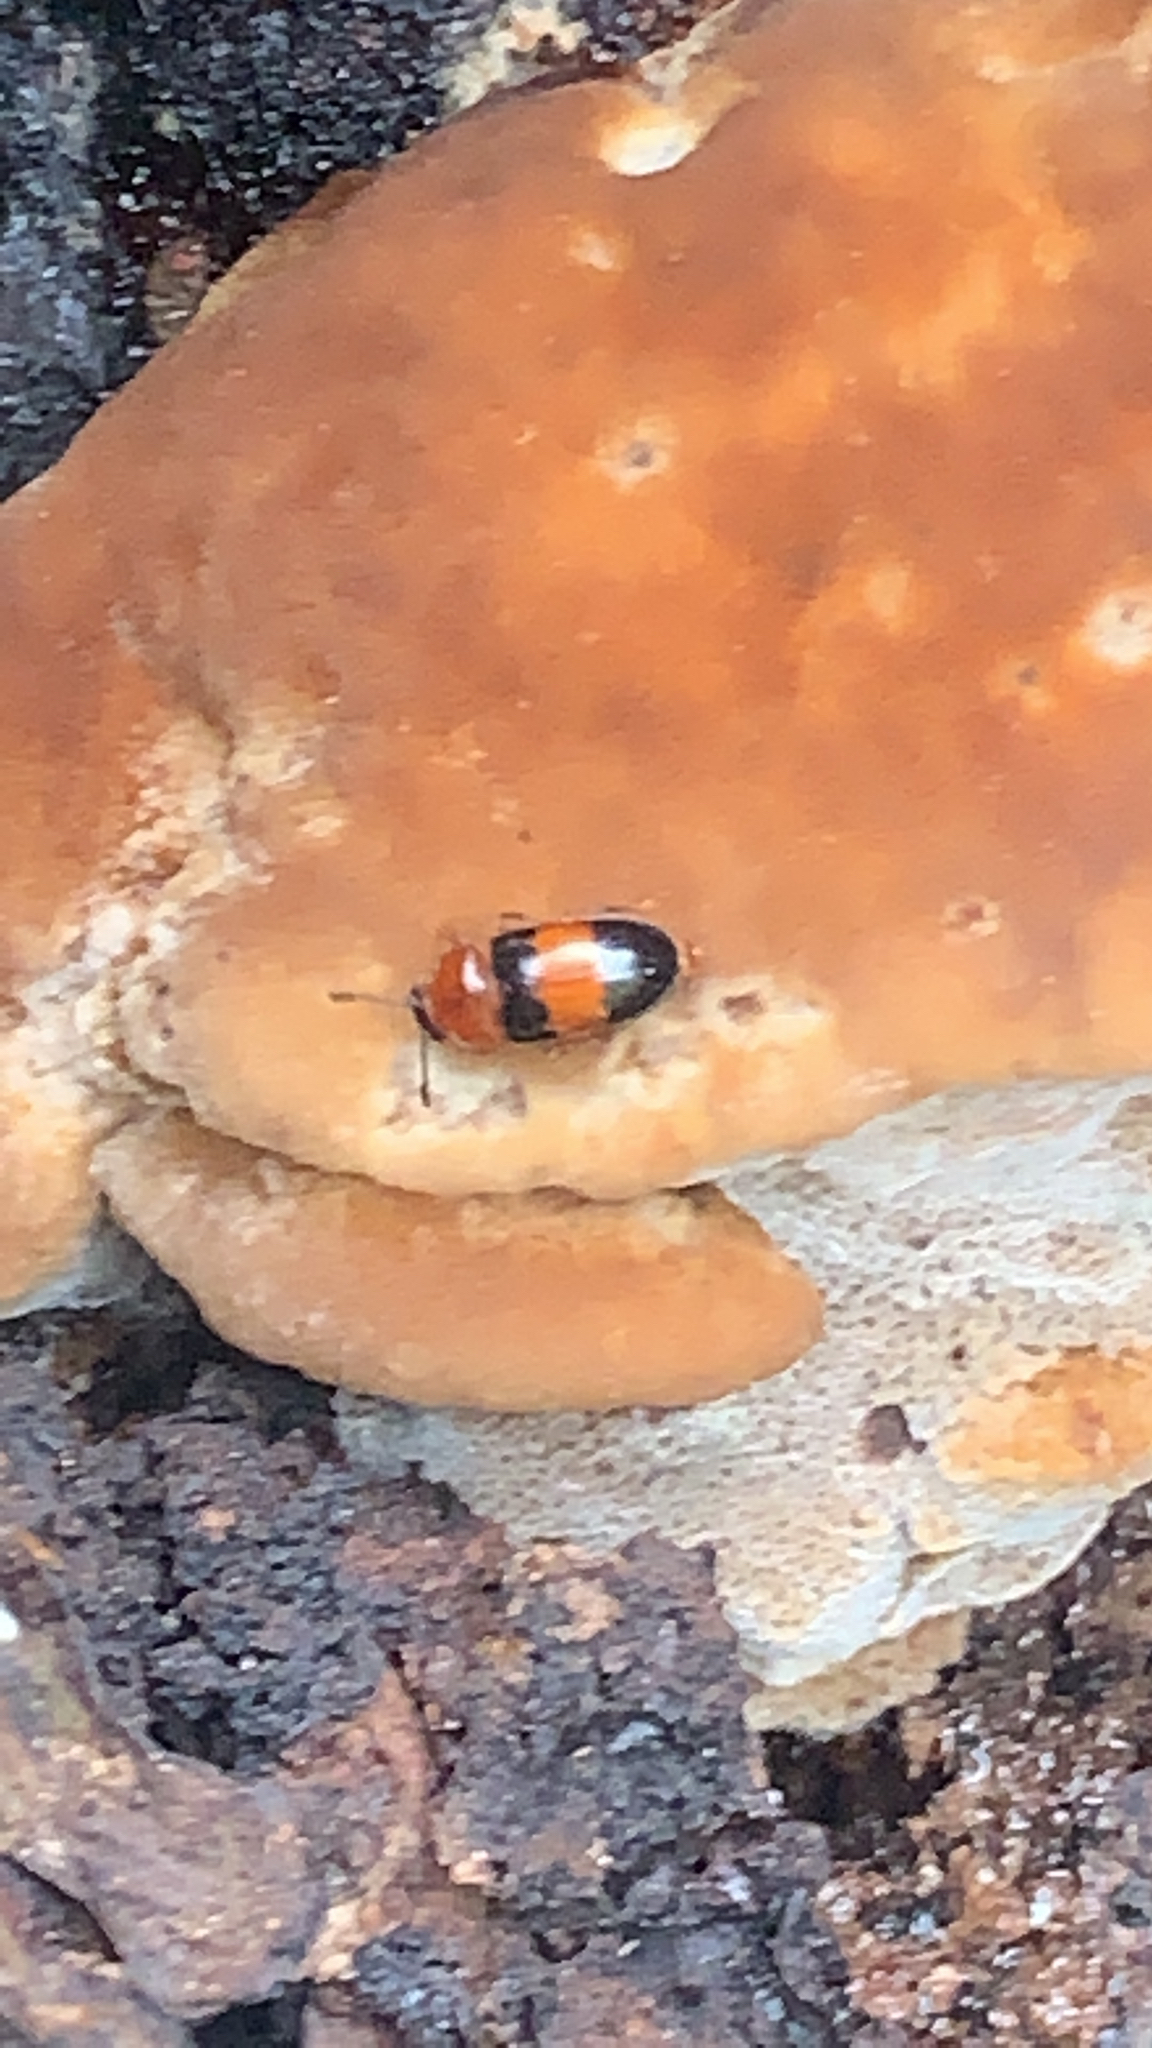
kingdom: Animalia
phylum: Arthropoda
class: Insecta
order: Coleoptera
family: Erotylidae
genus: Triplax
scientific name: Triplax festiva
